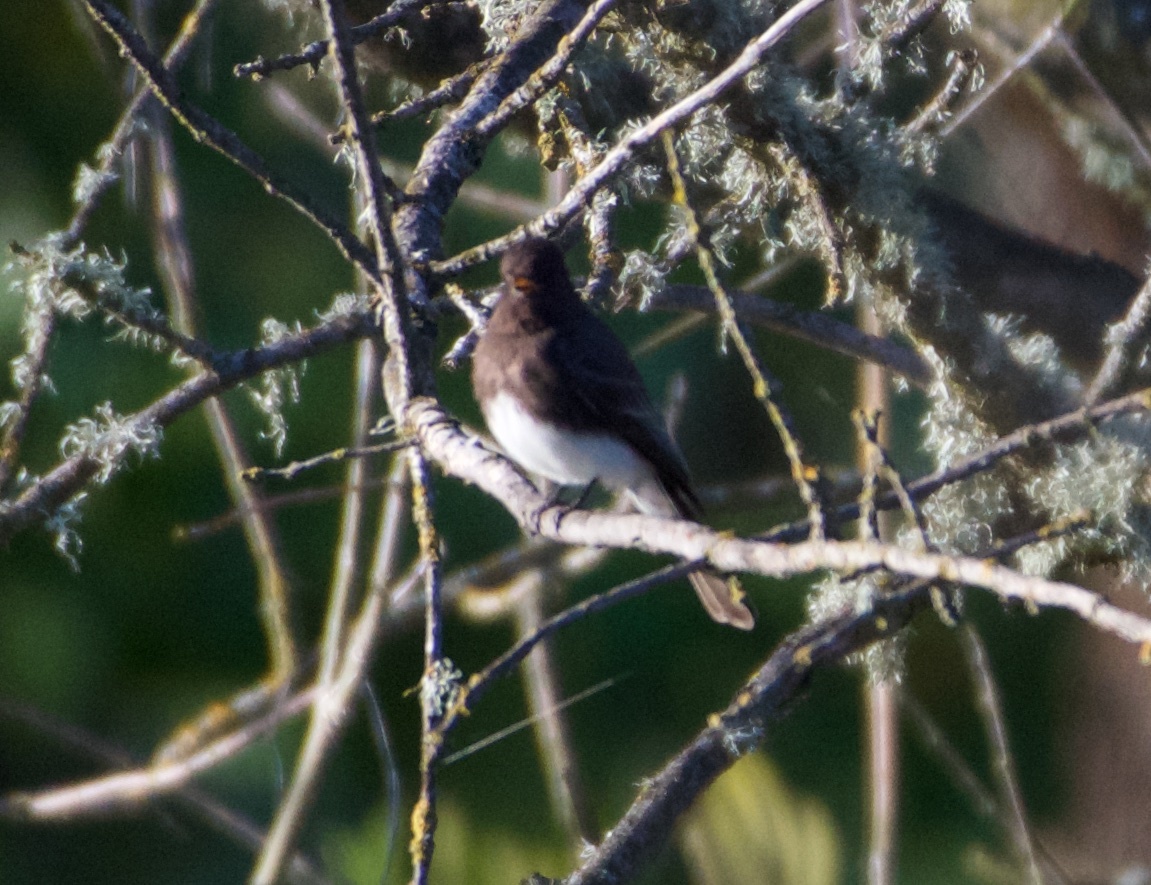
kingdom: Animalia
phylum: Chordata
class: Aves
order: Passeriformes
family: Tyrannidae
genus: Sayornis
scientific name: Sayornis nigricans
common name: Black phoebe
